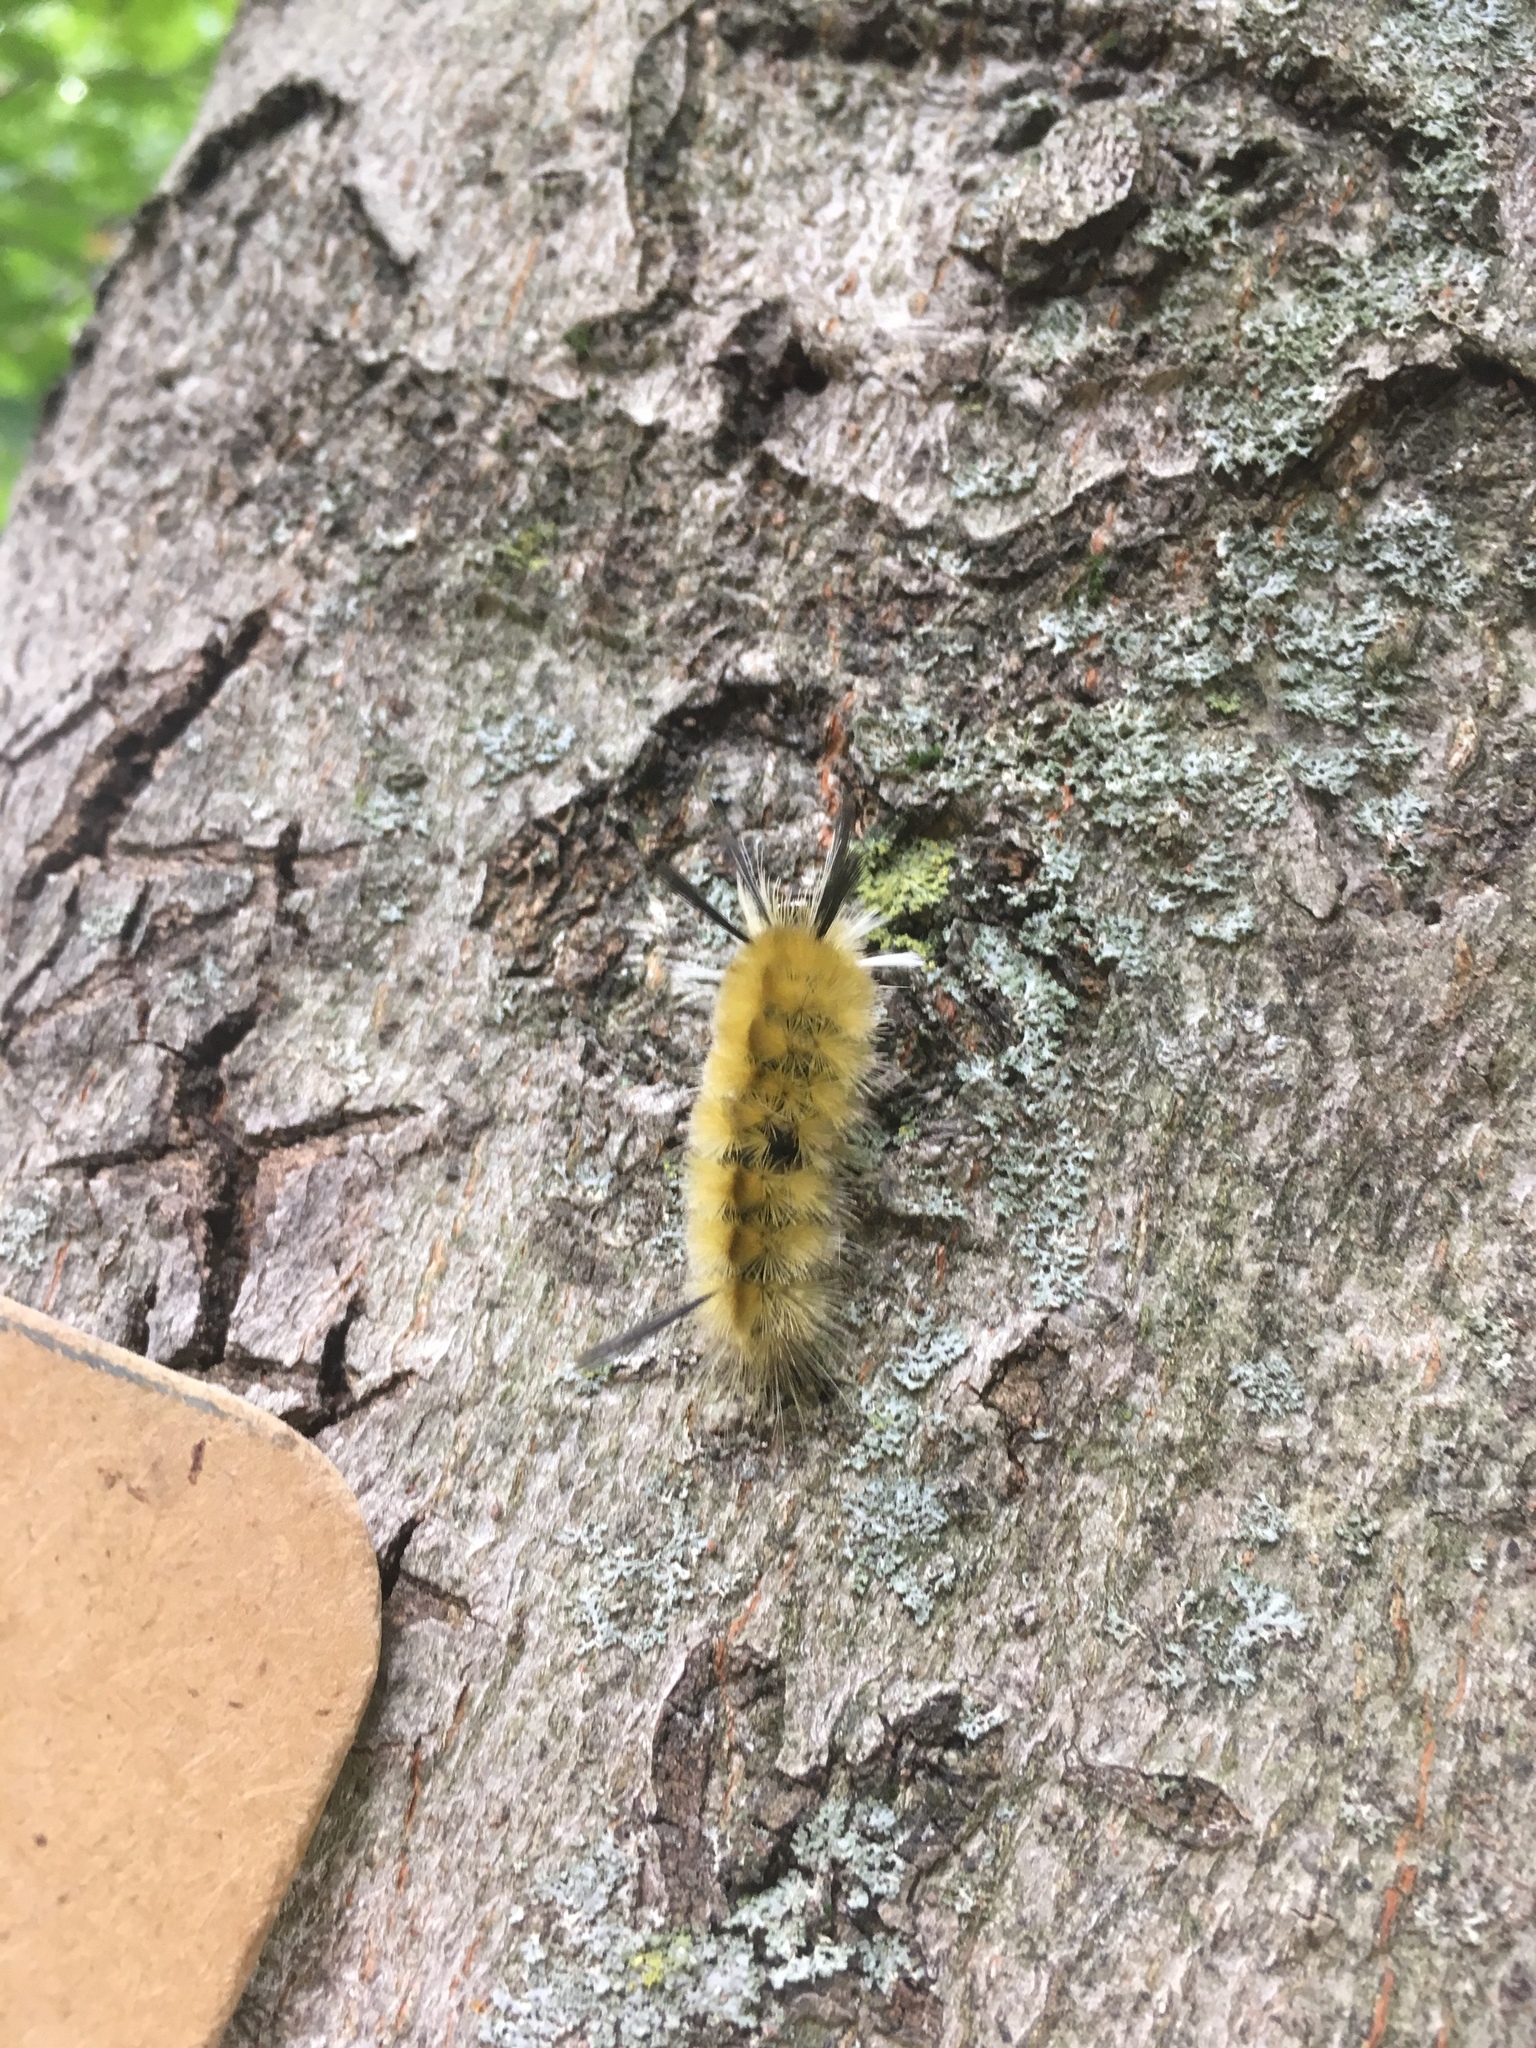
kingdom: Animalia
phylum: Arthropoda
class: Insecta
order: Lepidoptera
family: Erebidae
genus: Halysidota
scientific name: Halysidota tessellaris
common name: Banded tussock moth
